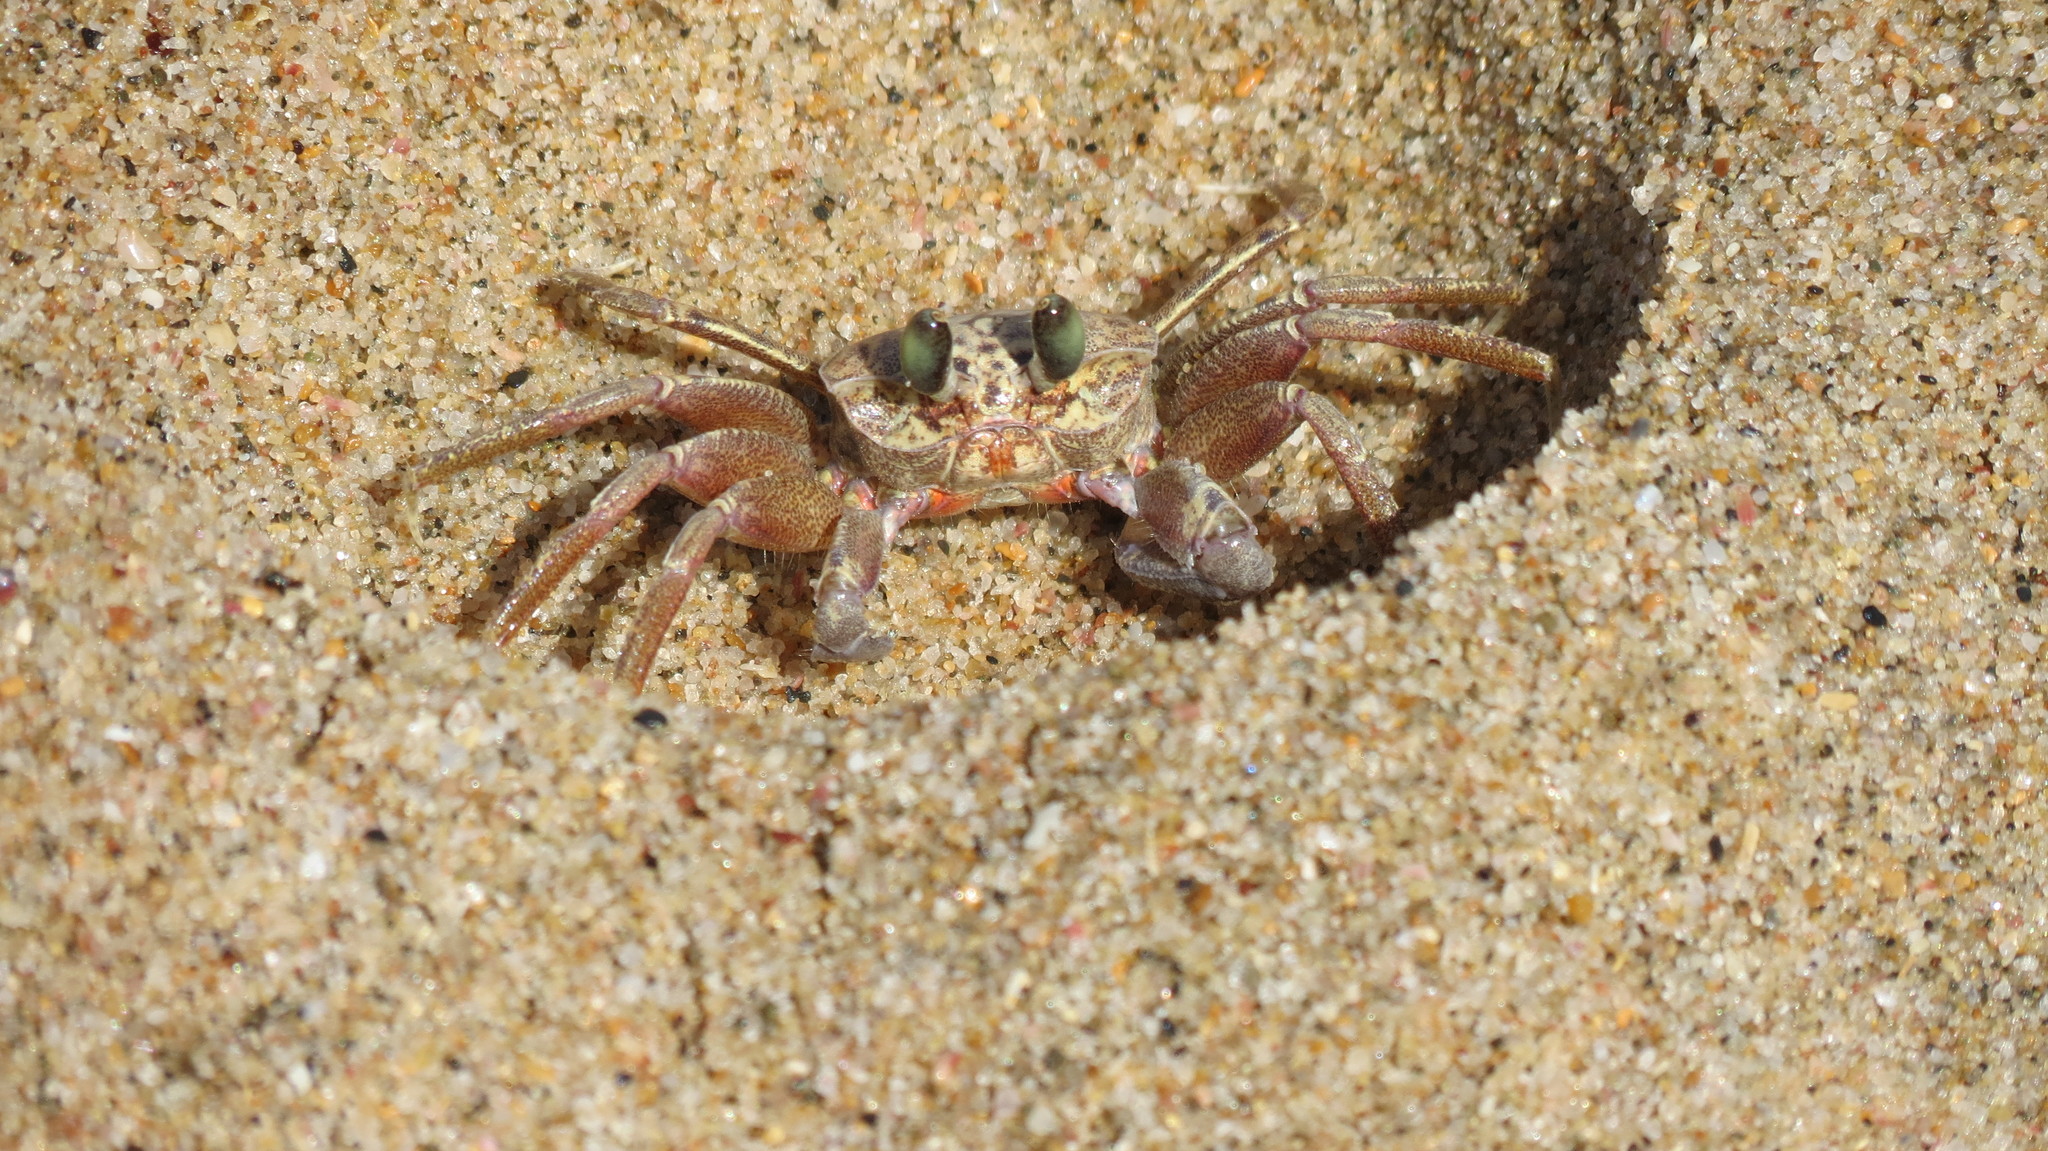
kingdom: Animalia
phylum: Arthropoda
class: Malacostraca
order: Decapoda
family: Ocypodidae
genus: Ocypode
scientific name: Ocypode ryderi
